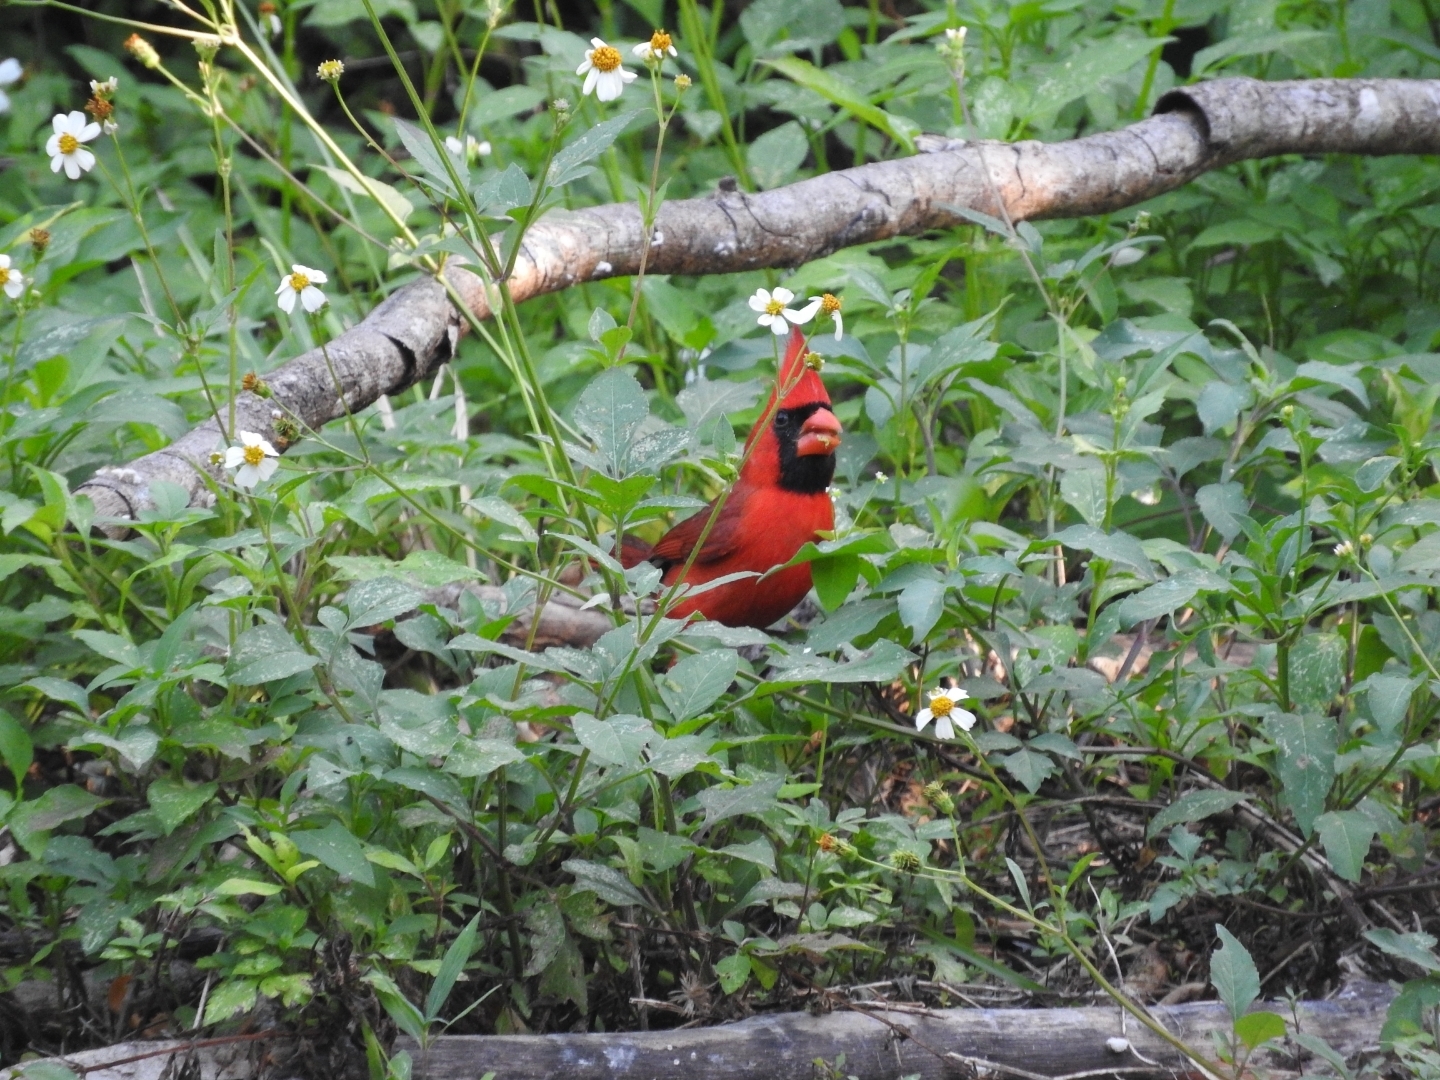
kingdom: Animalia
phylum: Chordata
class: Aves
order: Passeriformes
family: Cardinalidae
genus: Cardinalis
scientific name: Cardinalis cardinalis
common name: Northern cardinal
